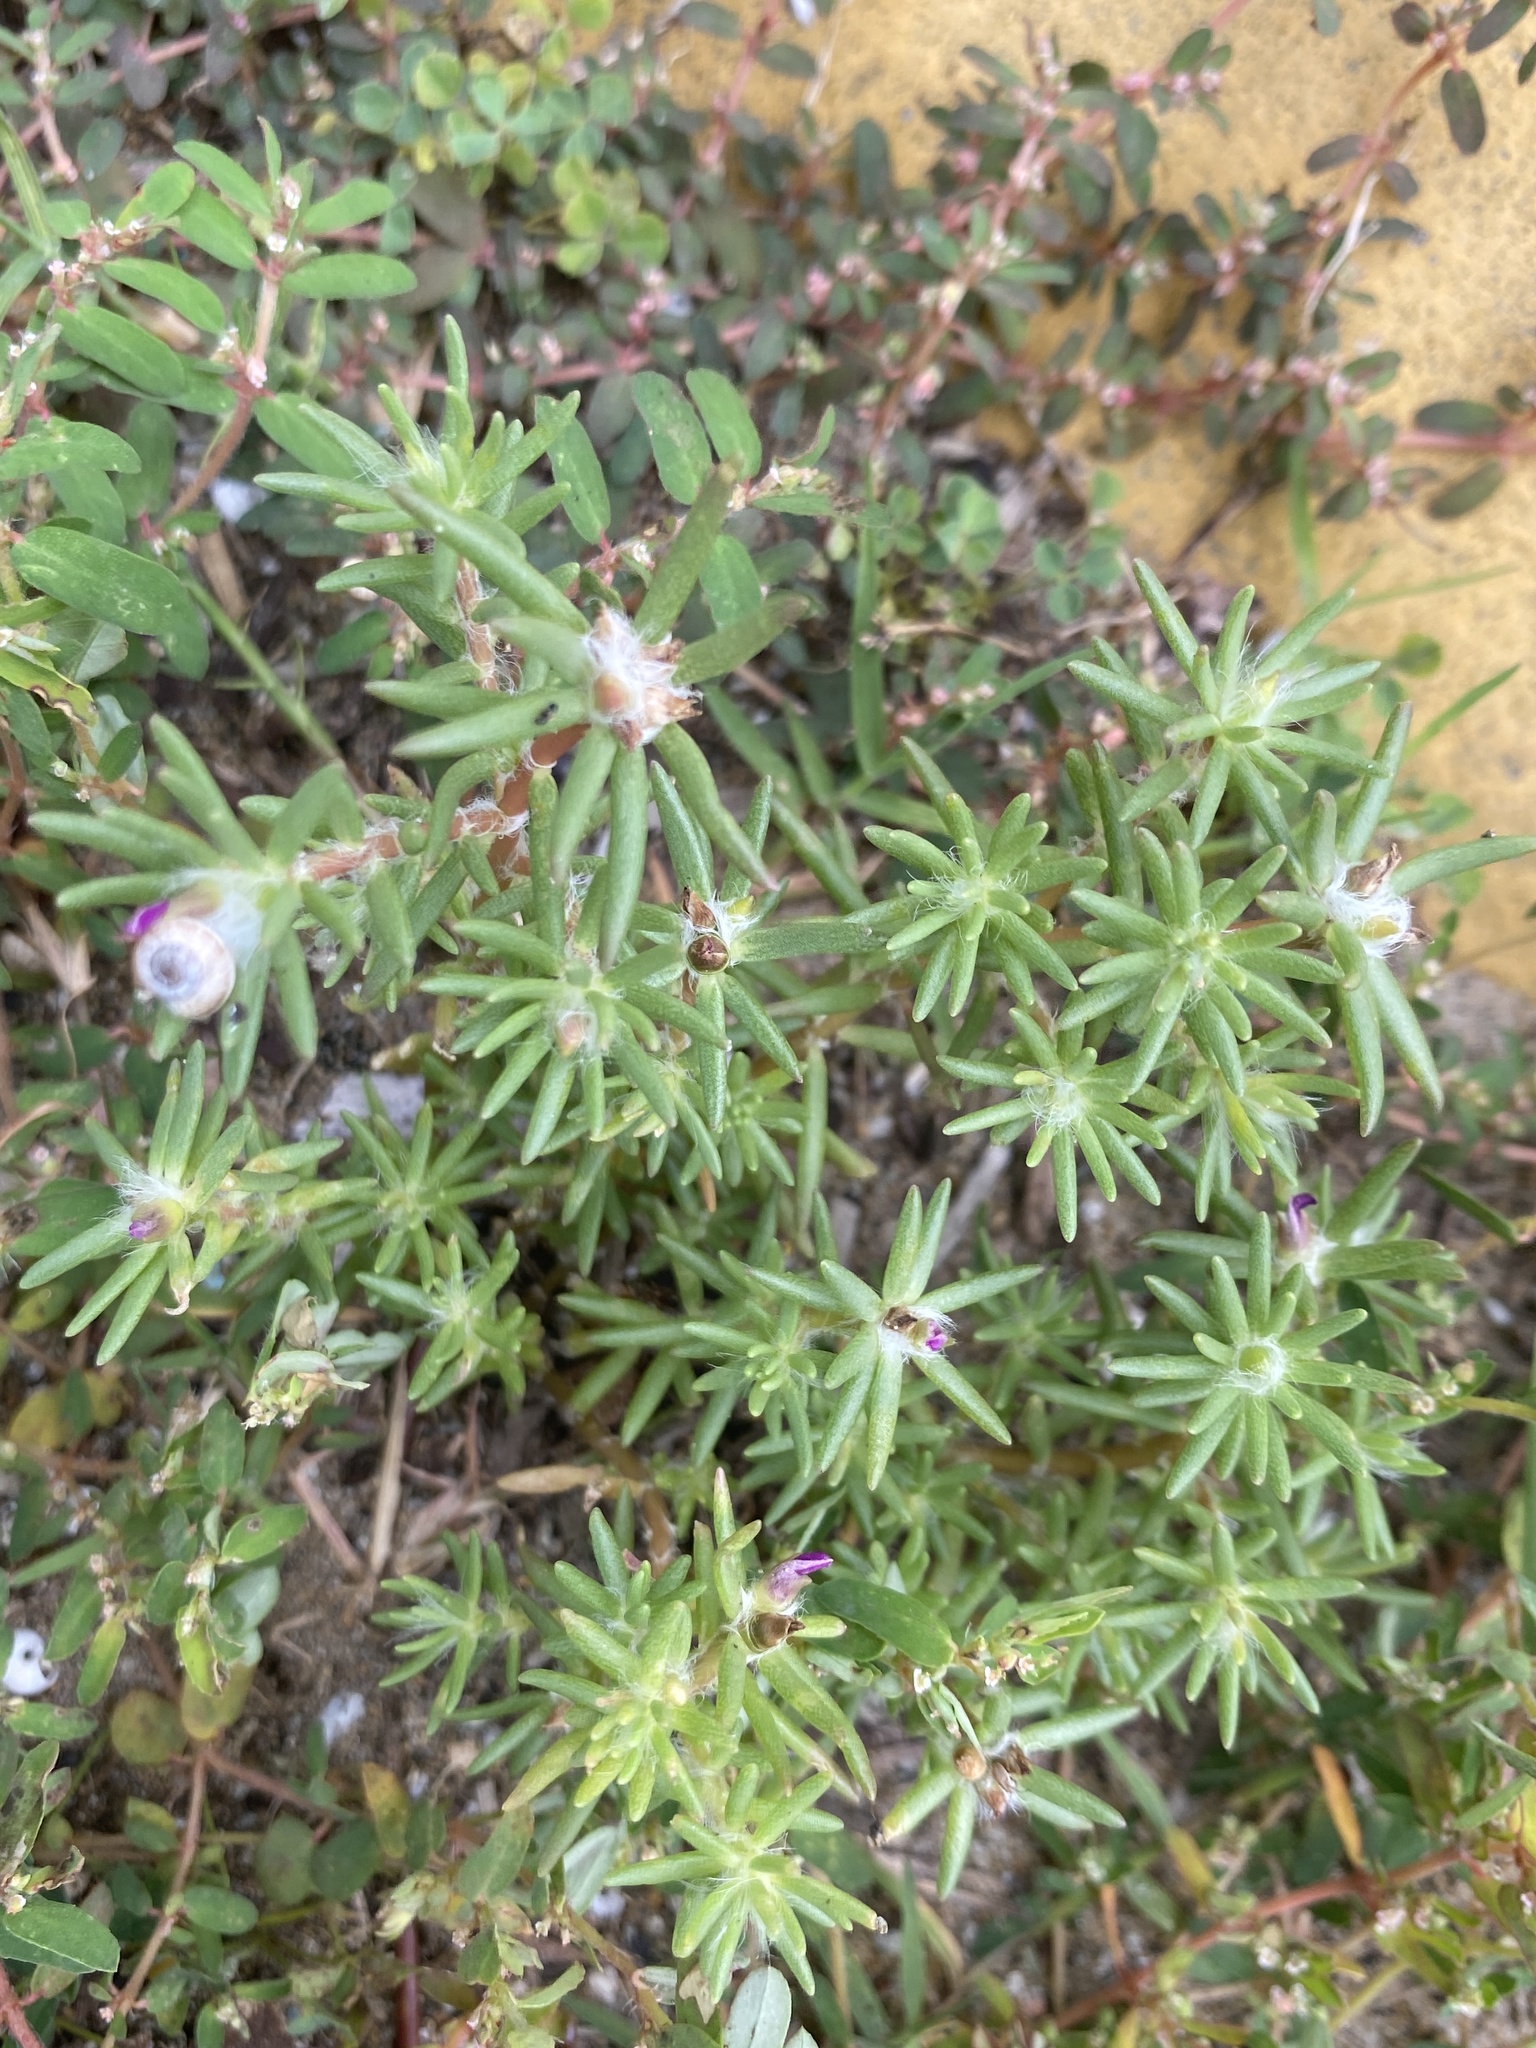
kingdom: Plantae
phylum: Tracheophyta
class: Magnoliopsida
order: Caryophyllales
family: Portulacaceae
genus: Portulaca
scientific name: Portulaca pilosa
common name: Kiss me quick
